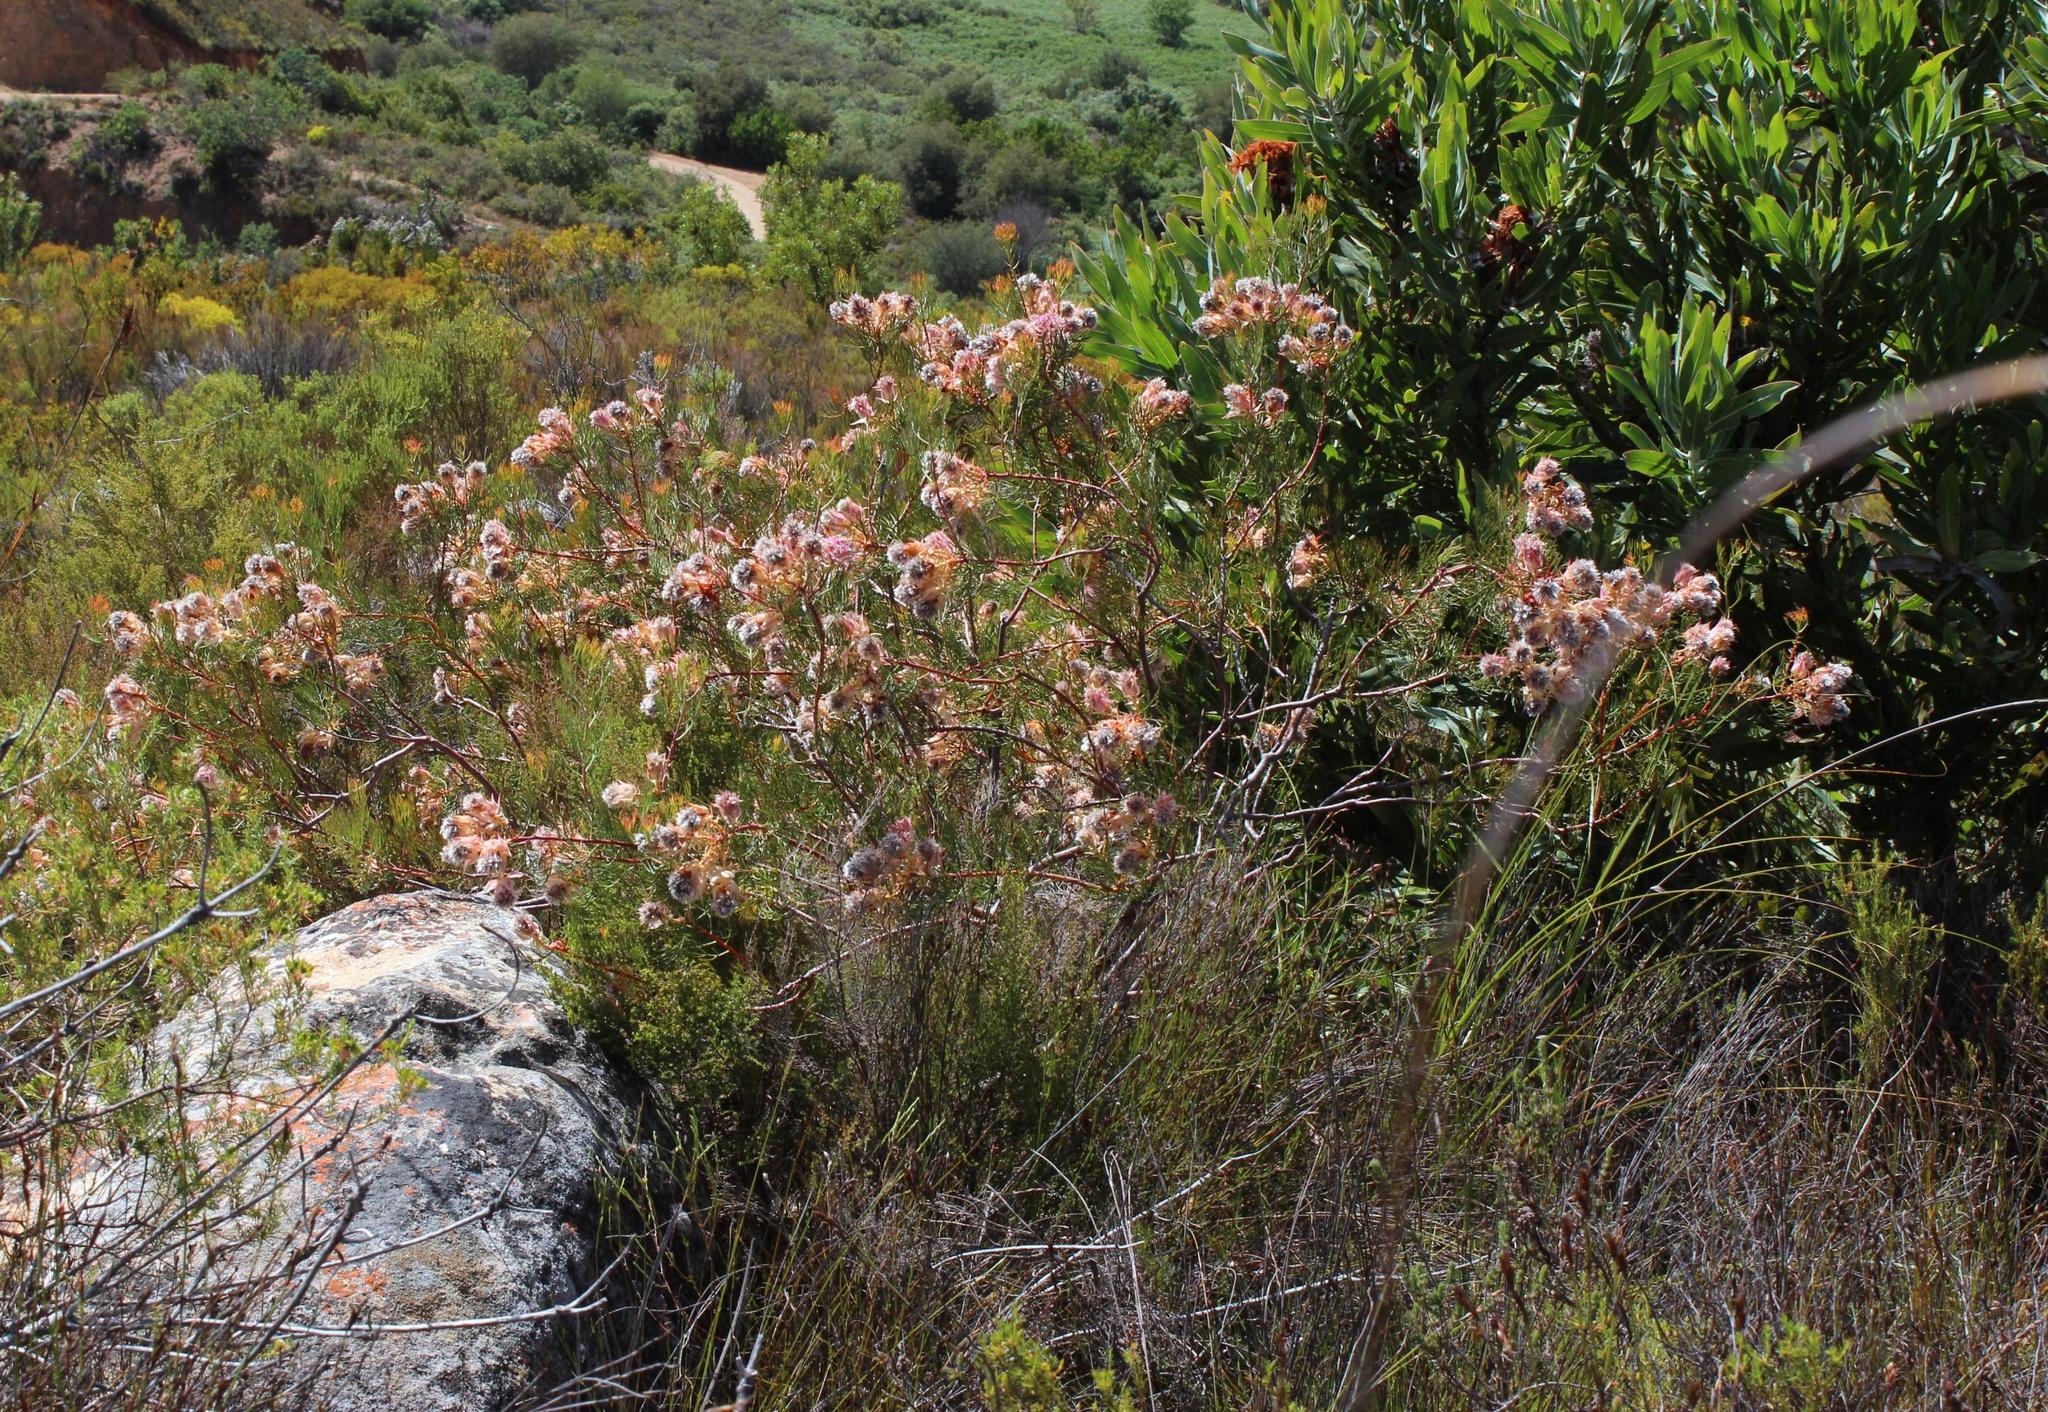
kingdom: Plantae
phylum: Tracheophyta
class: Magnoliopsida
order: Proteales
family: Proteaceae
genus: Serruria
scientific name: Serruria rosea
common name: Rose spiderhead
